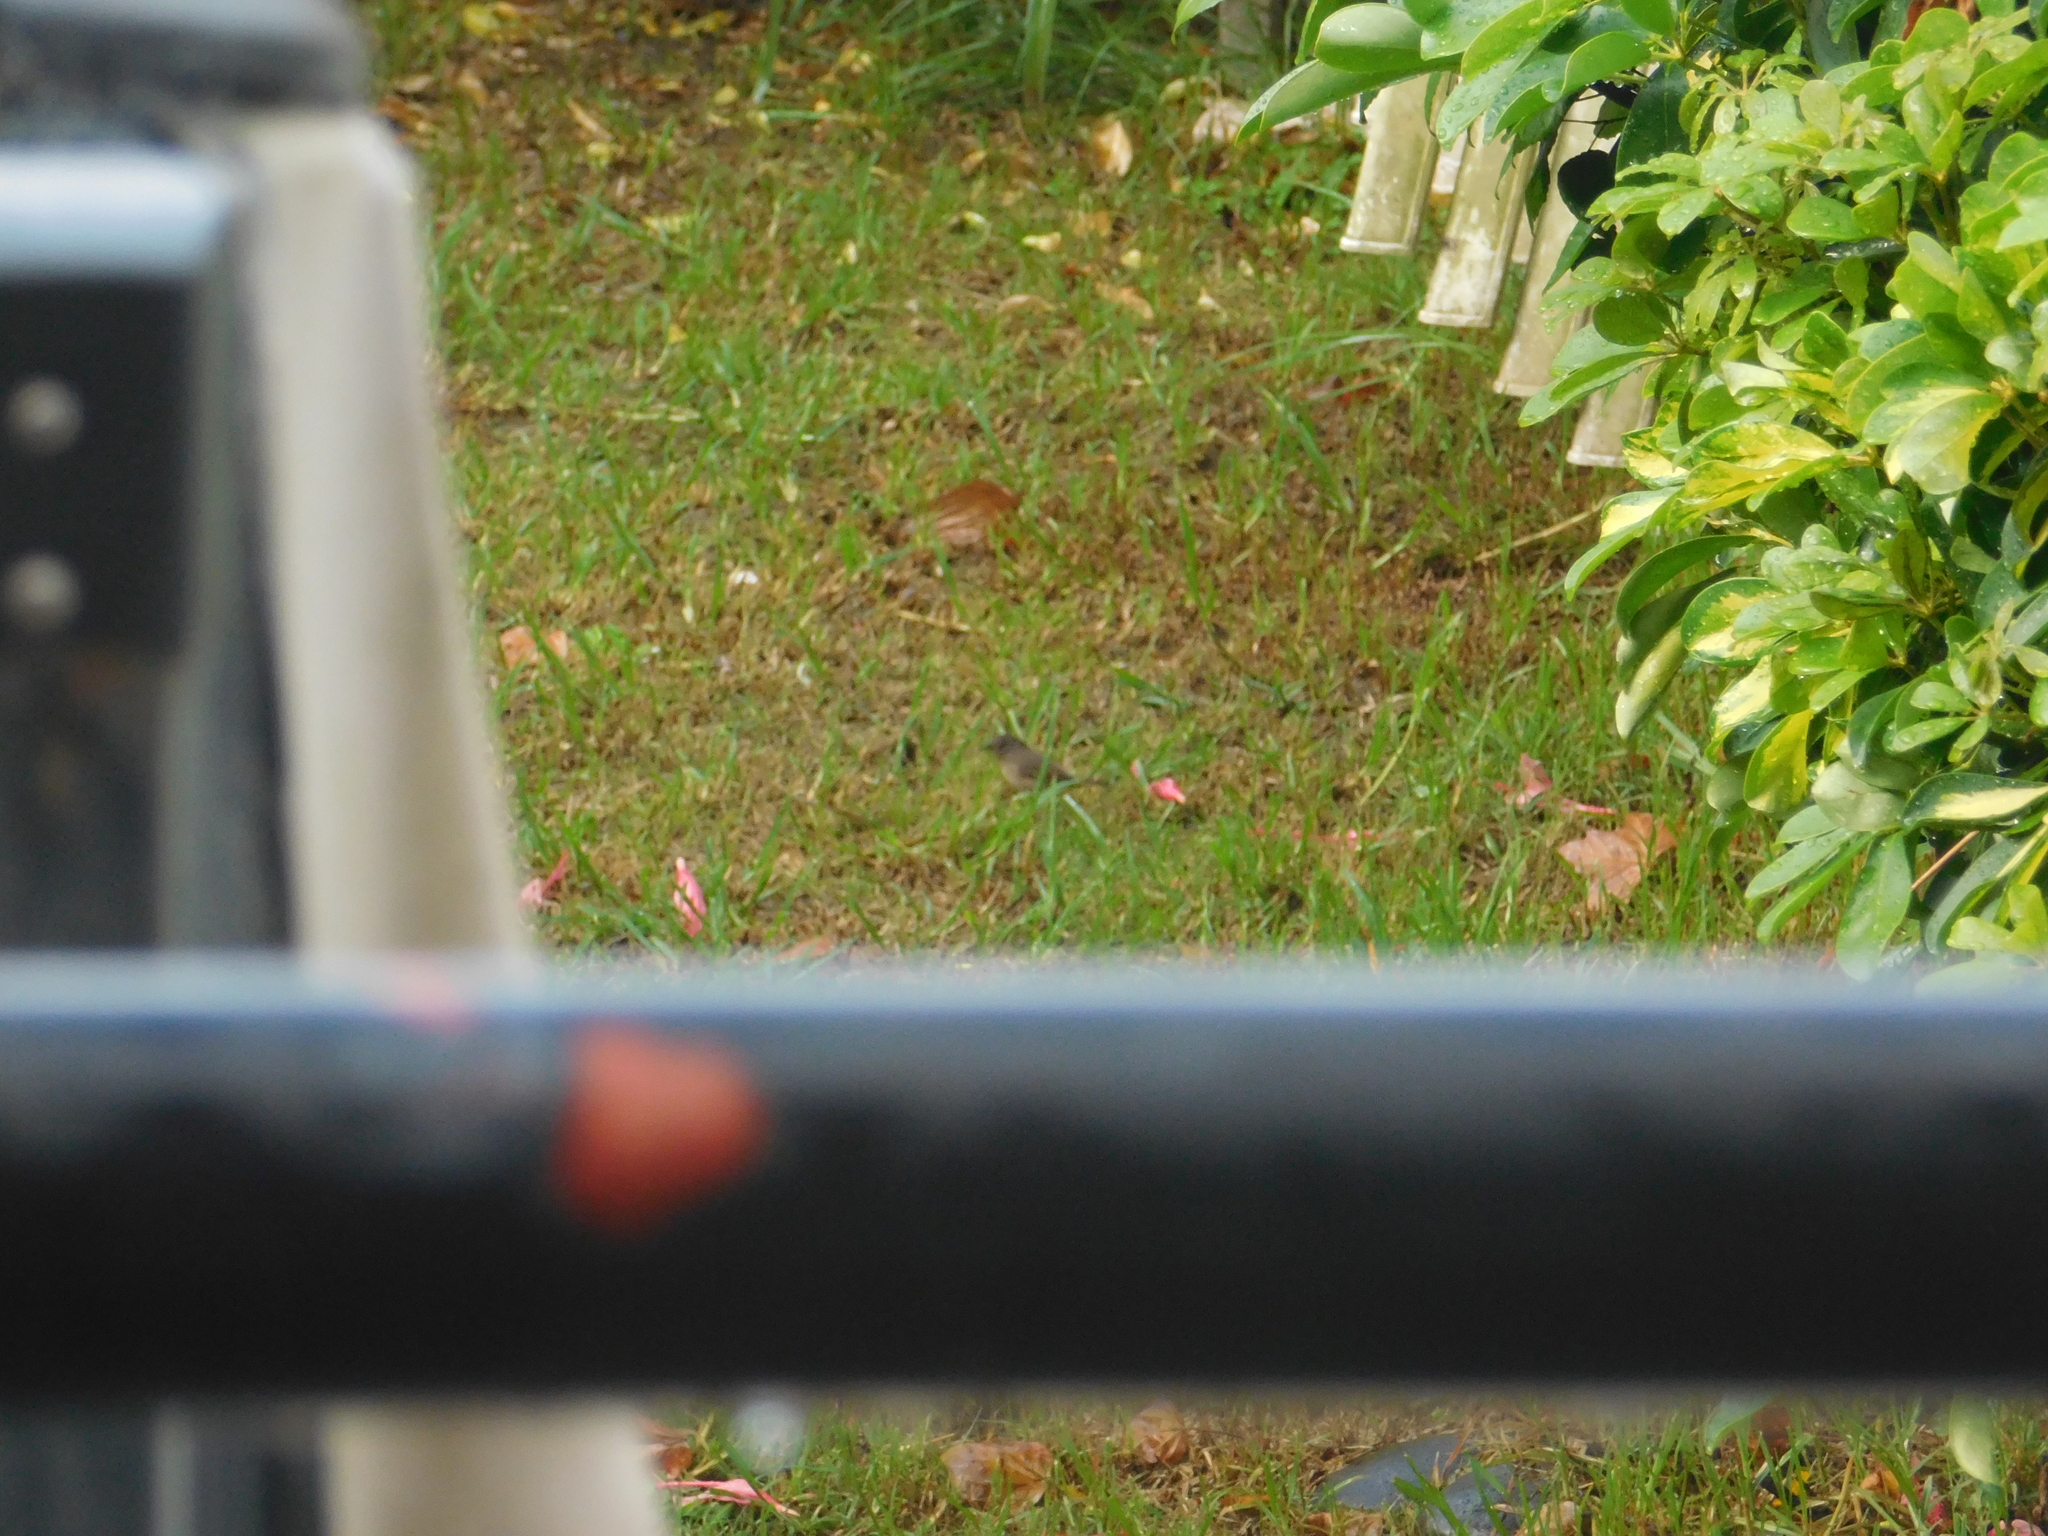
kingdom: Animalia
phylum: Chordata
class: Aves
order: Passeriformes
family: Troglodytidae
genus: Troglodytes
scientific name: Troglodytes aedon
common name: House wren
